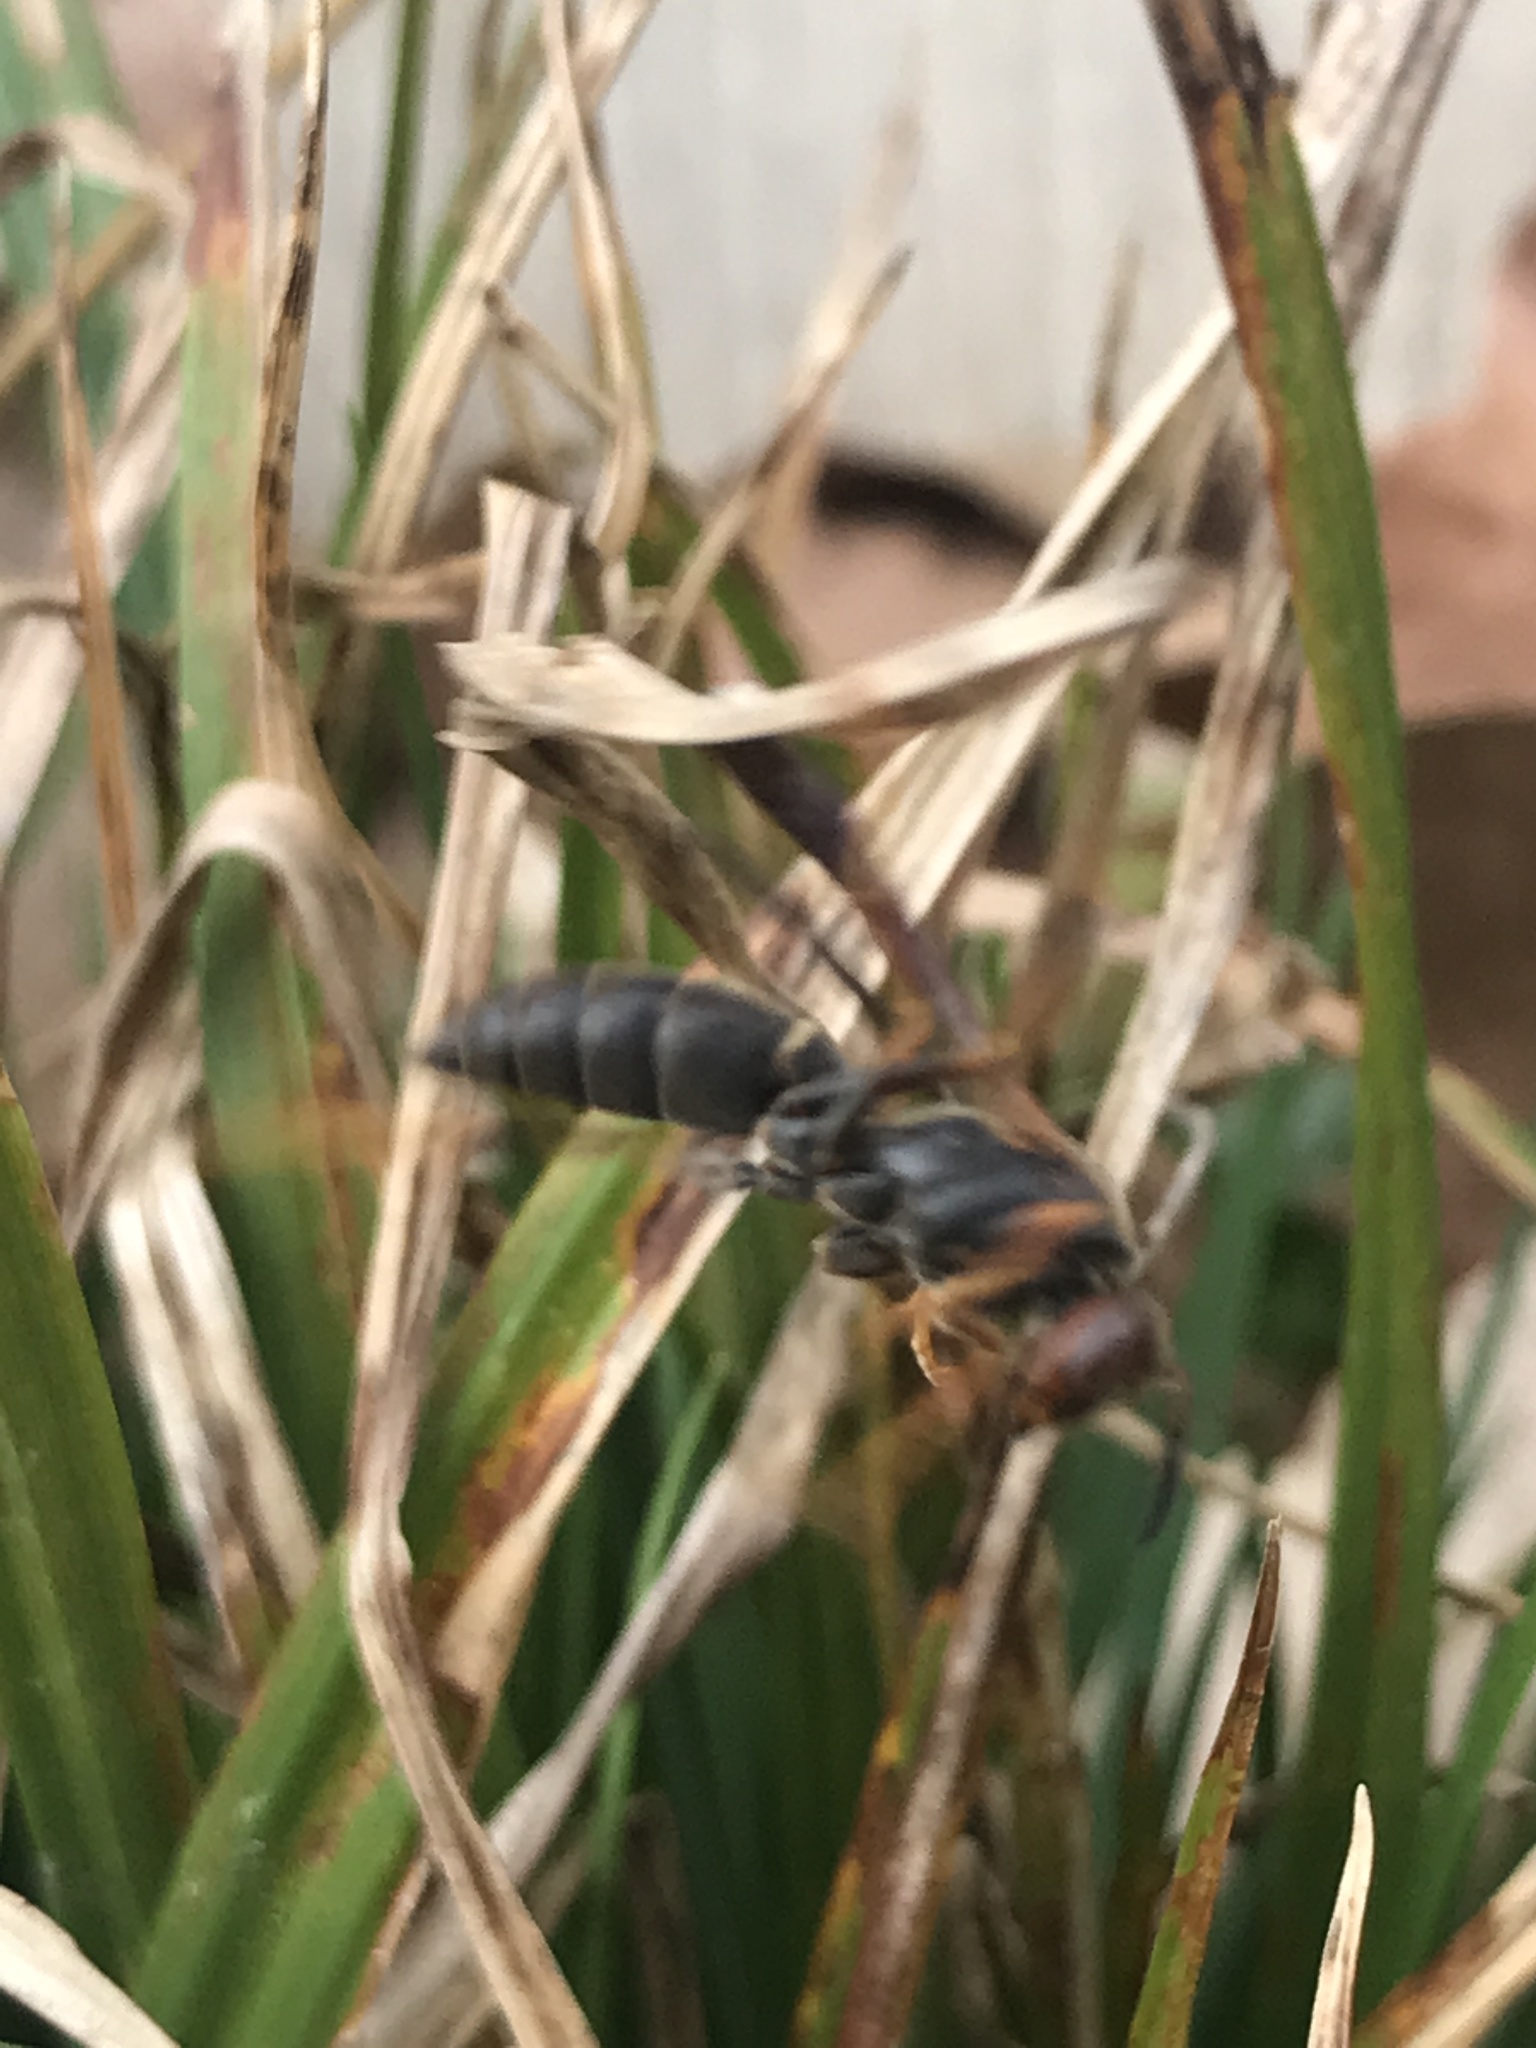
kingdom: Animalia
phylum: Arthropoda
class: Insecta
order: Hymenoptera
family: Vespidae
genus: Fuscopolistes
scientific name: Fuscopolistes
